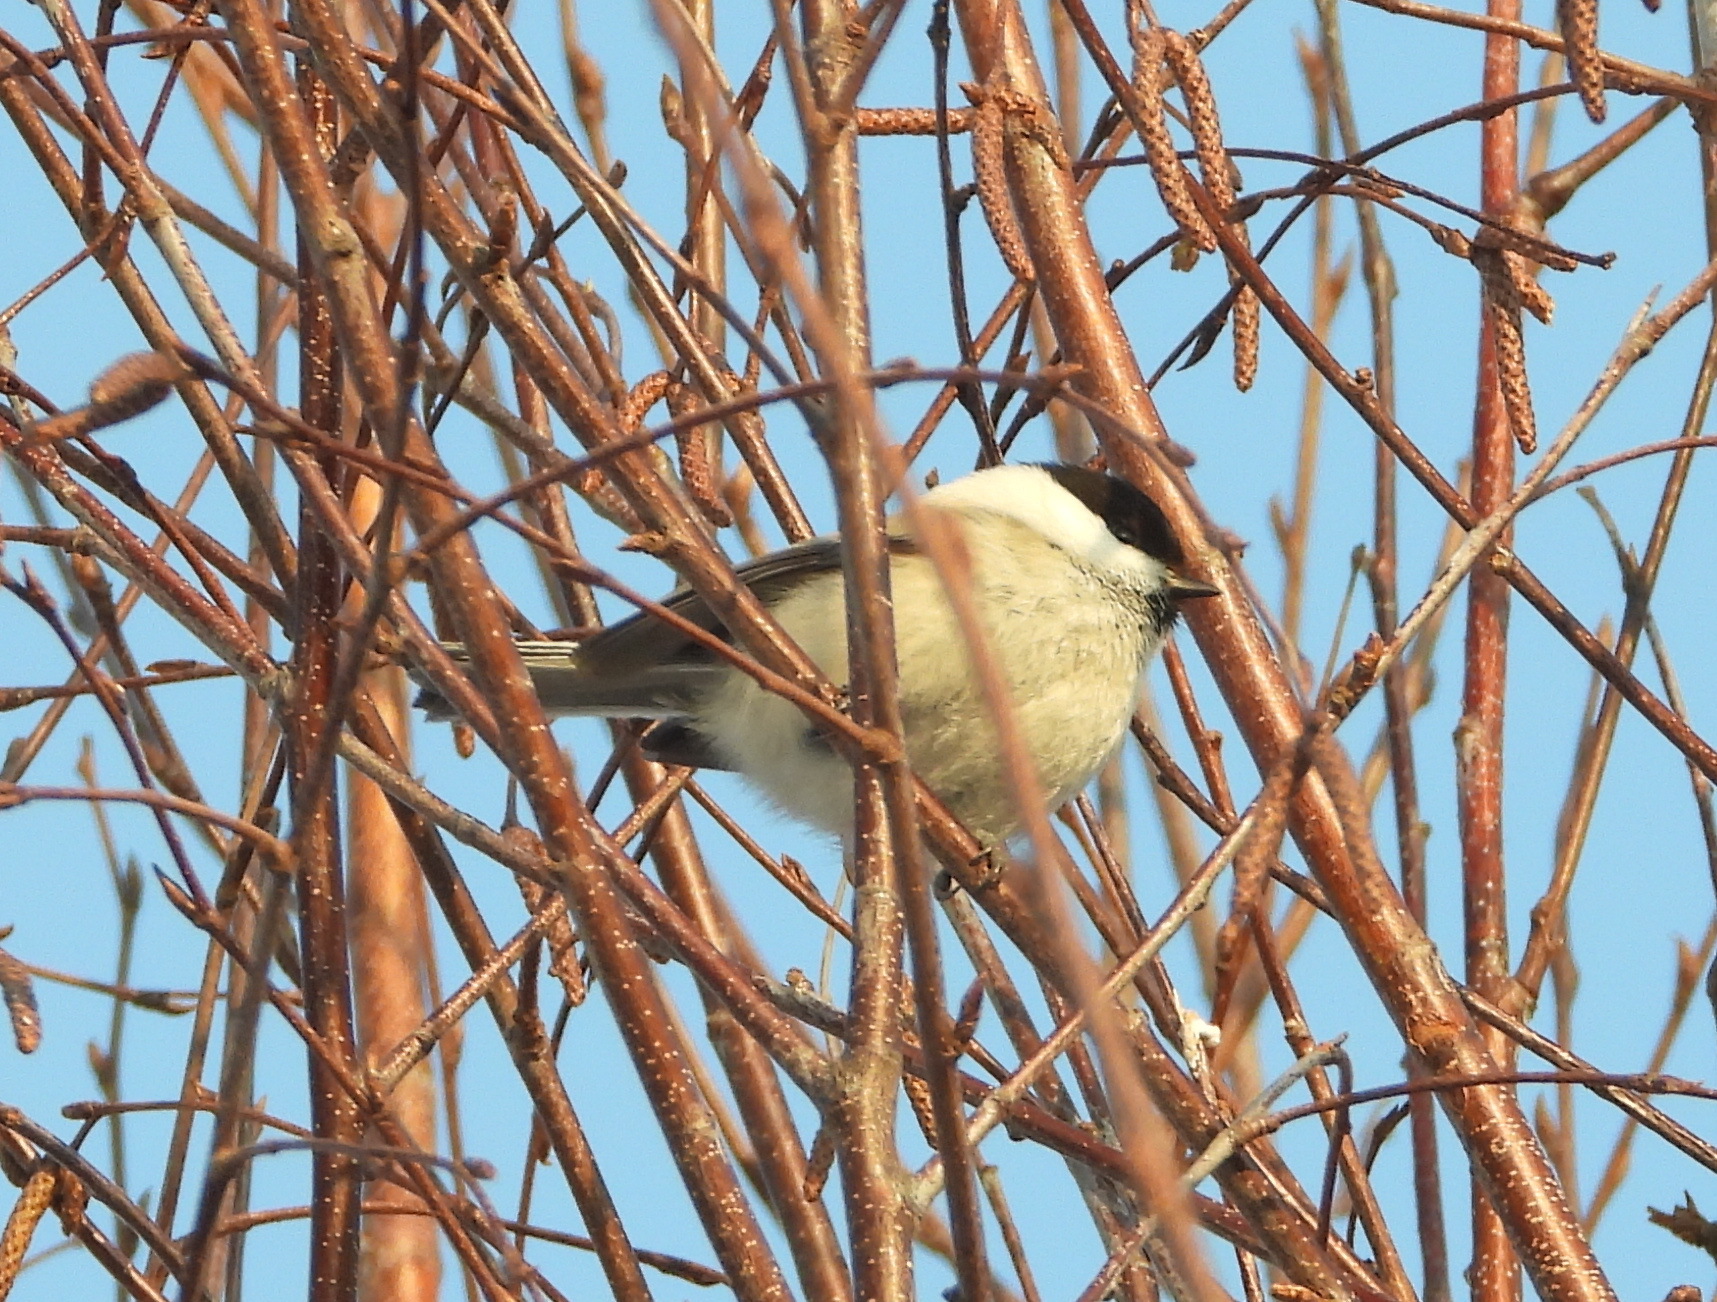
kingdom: Animalia
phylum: Chordata
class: Aves
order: Passeriformes
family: Paridae
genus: Poecile
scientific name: Poecile montanus
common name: Willow tit
